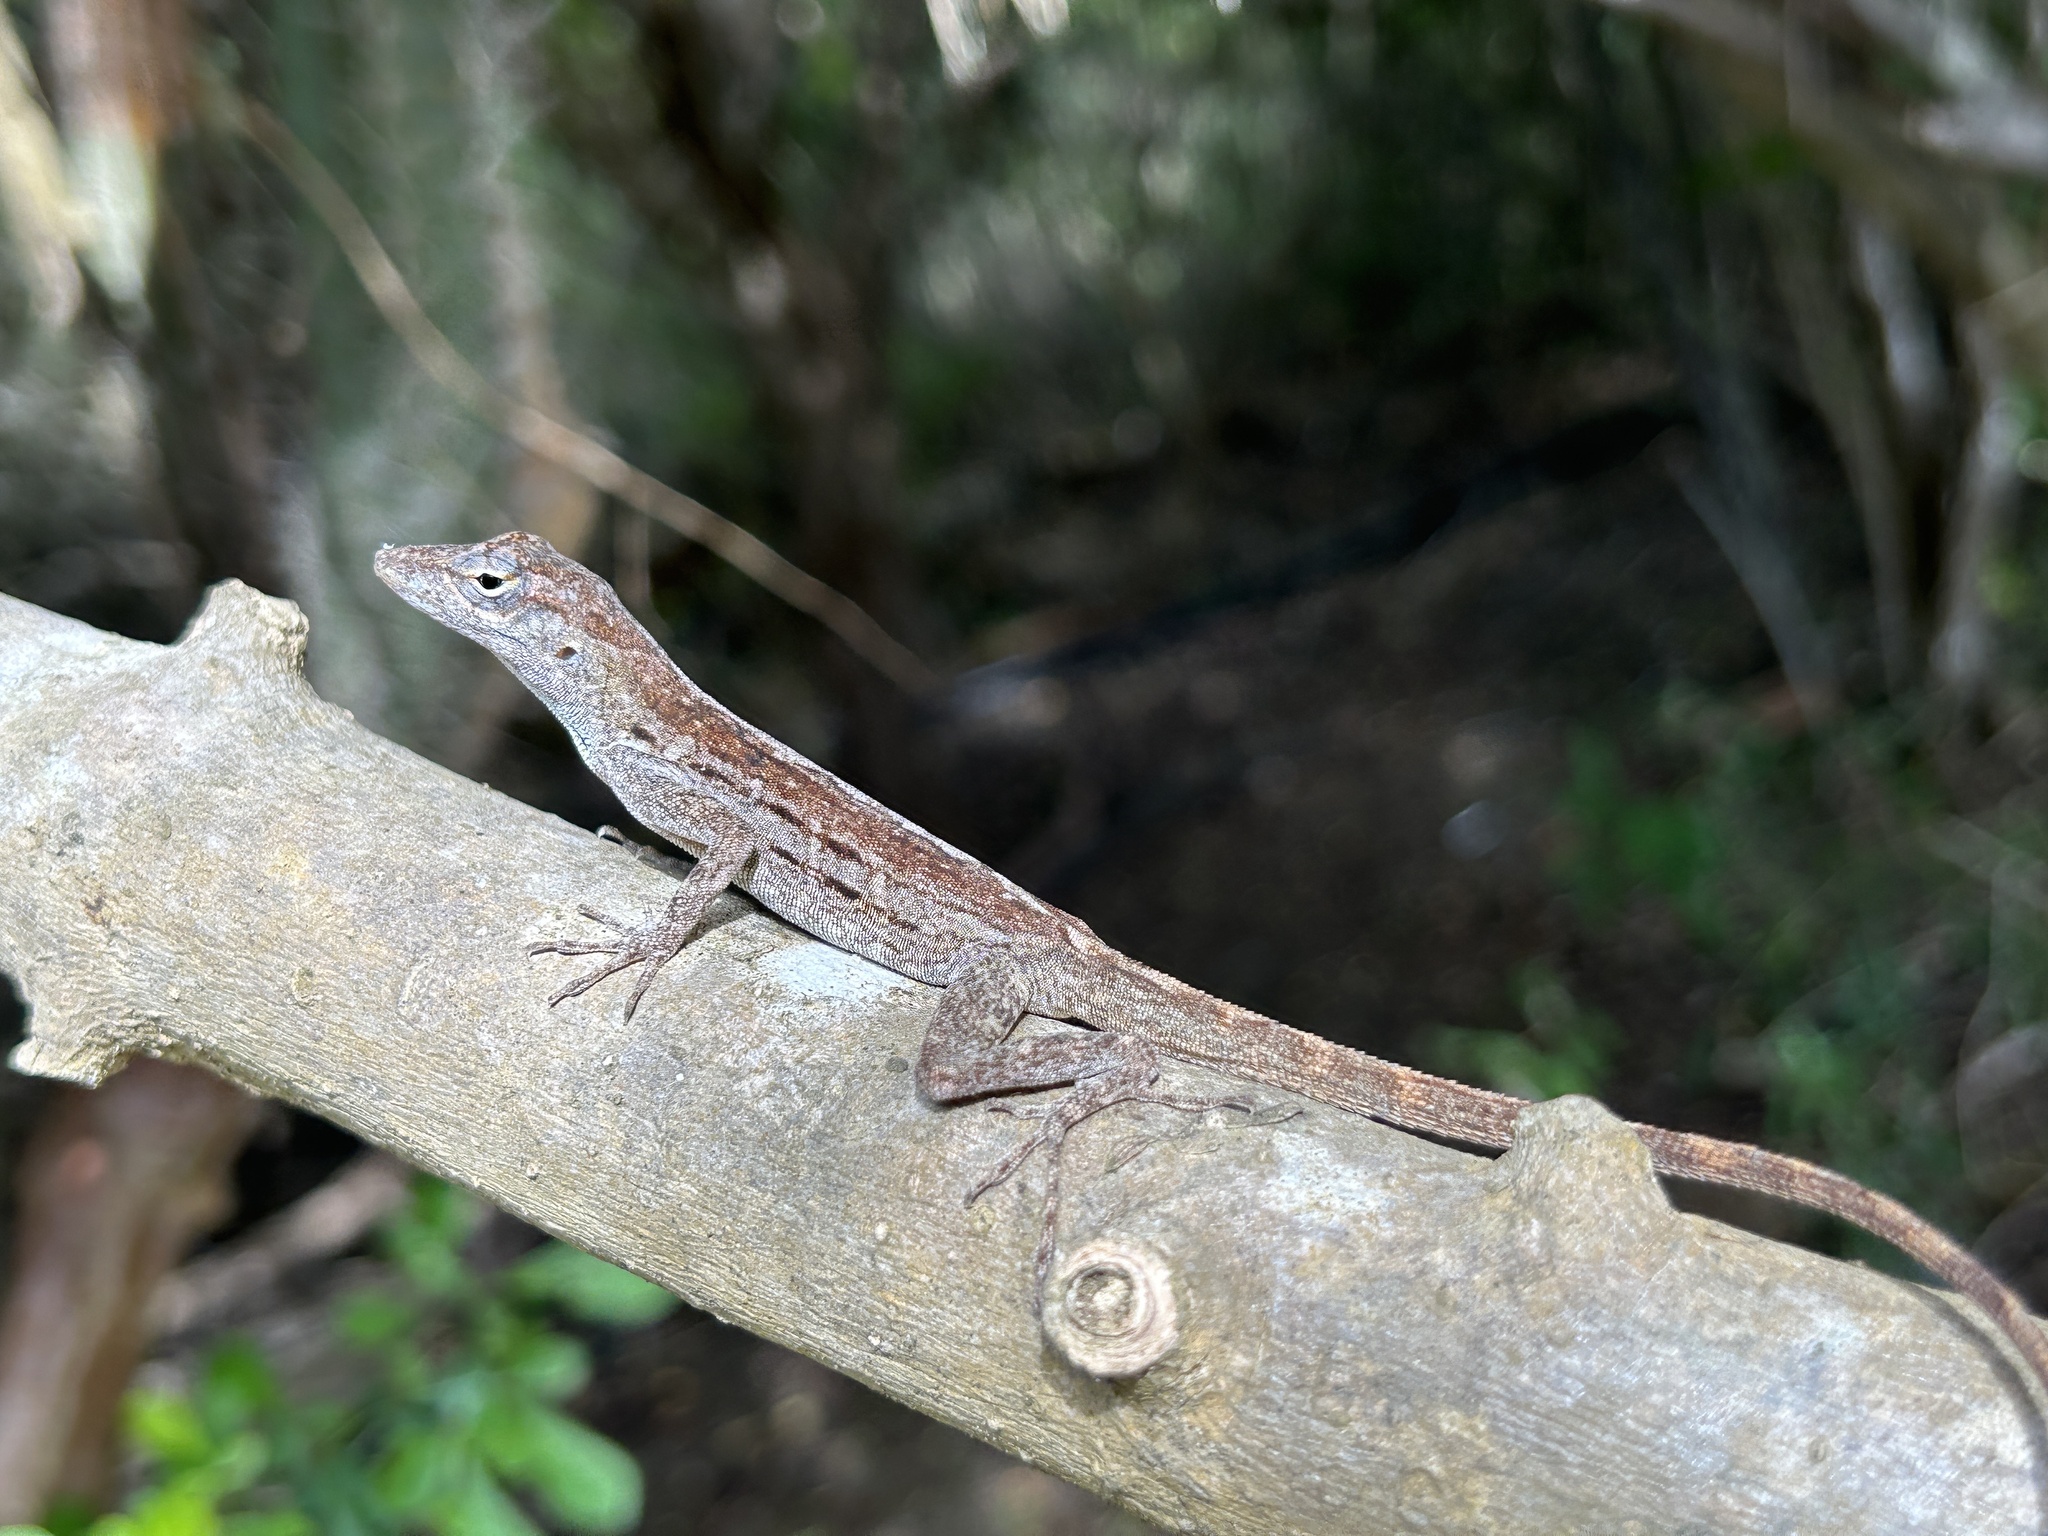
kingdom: Animalia
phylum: Chordata
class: Squamata
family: Dactyloidae
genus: Anolis
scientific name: Anolis lineatus
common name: Striped anole
